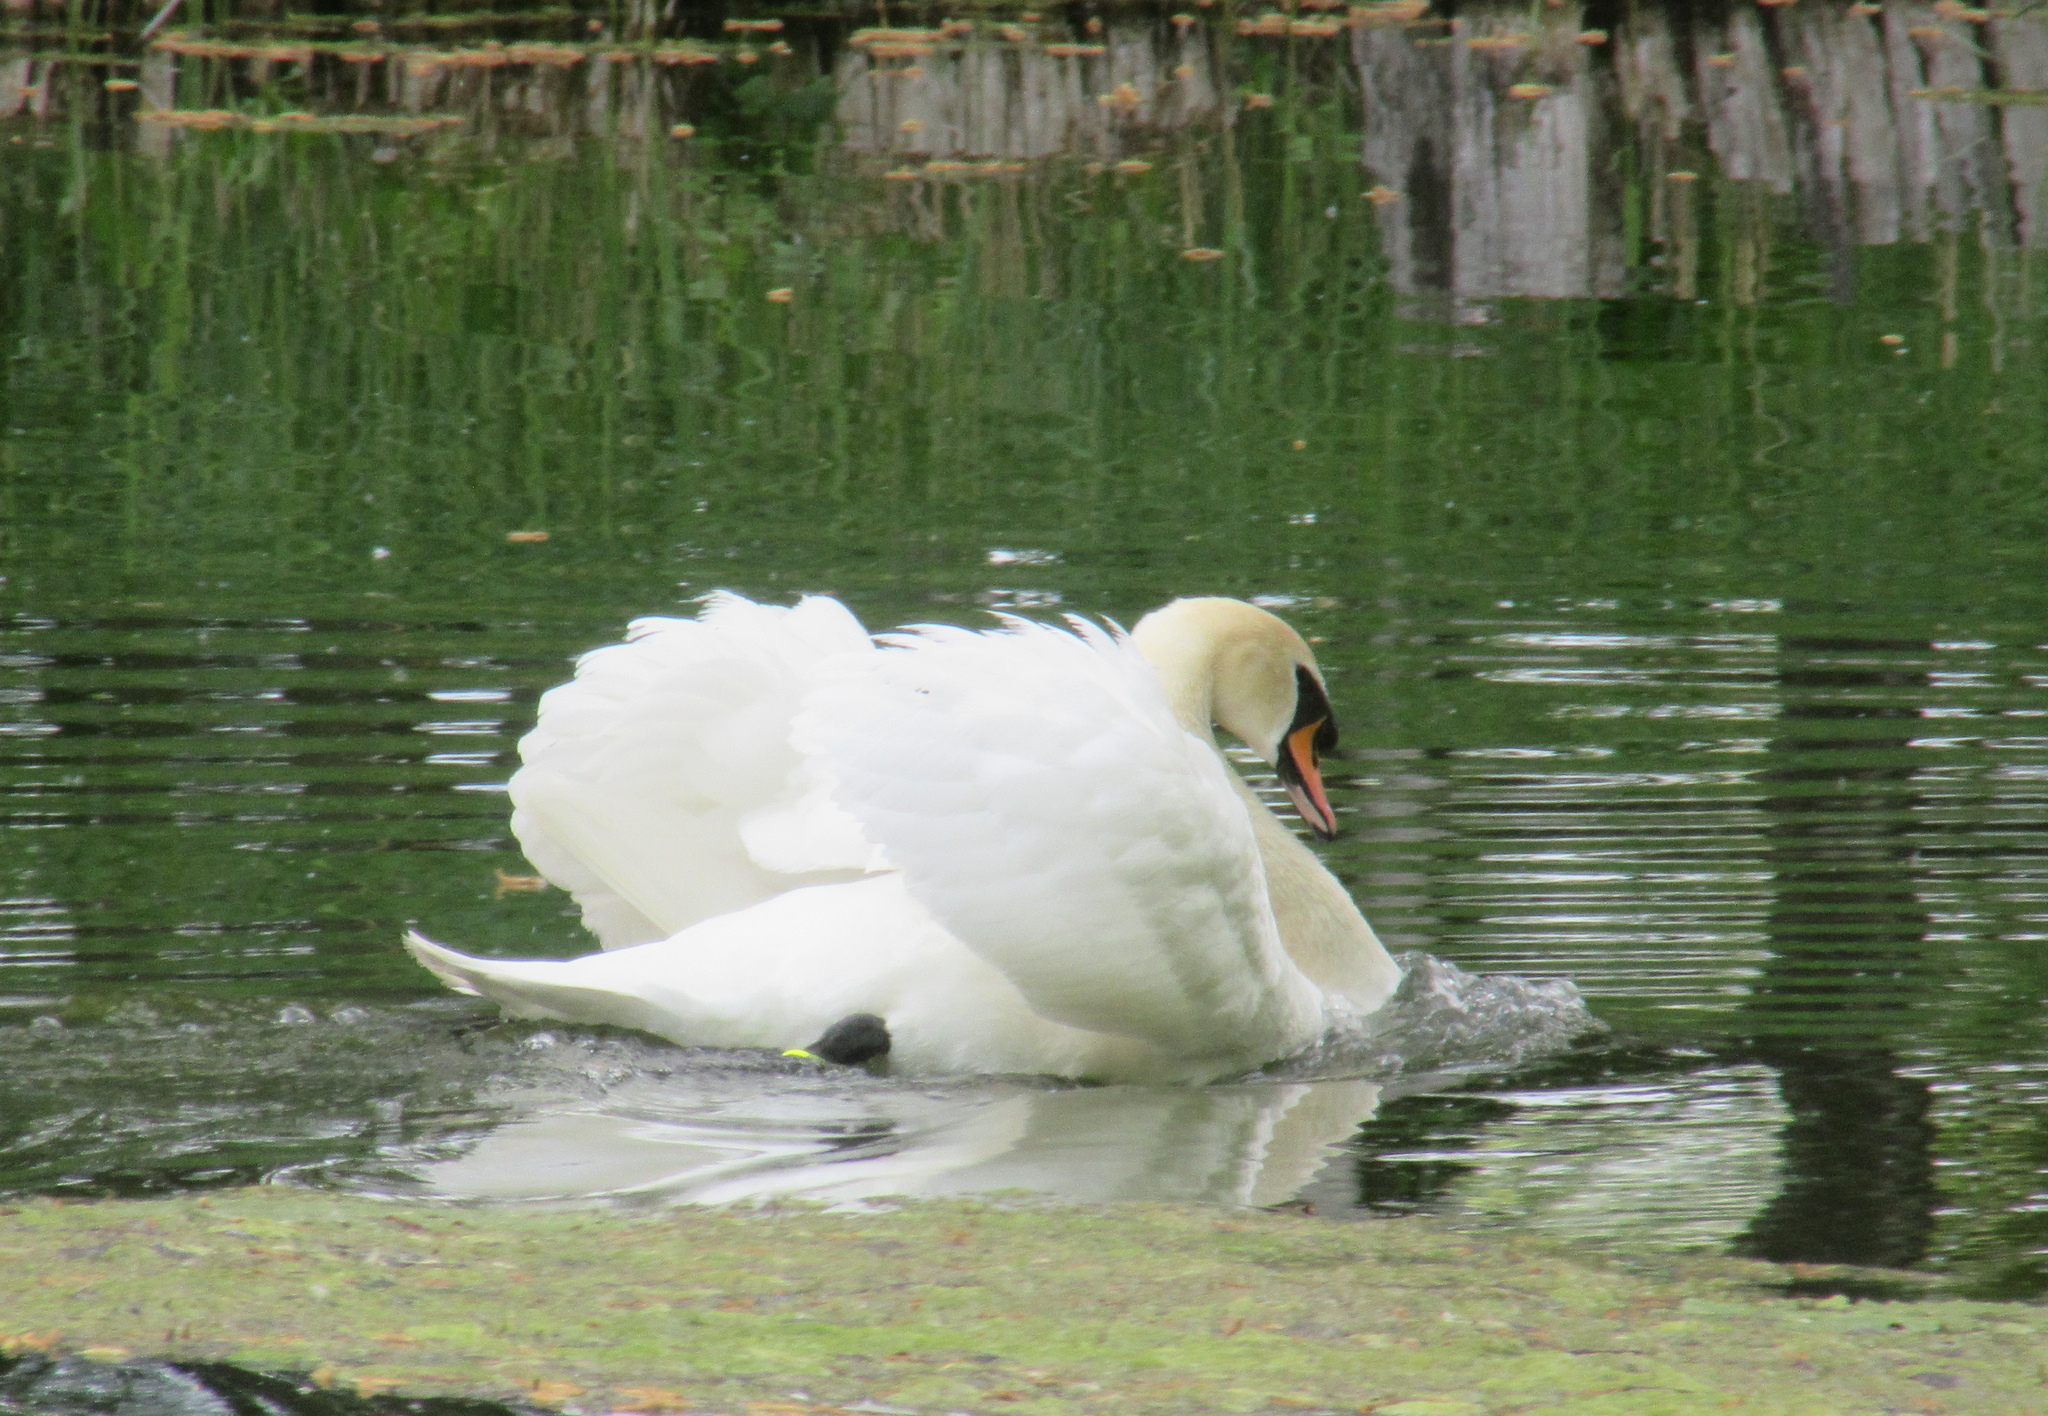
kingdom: Animalia
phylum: Chordata
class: Aves
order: Anseriformes
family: Anatidae
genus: Cygnus
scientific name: Cygnus olor
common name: Mute swan
